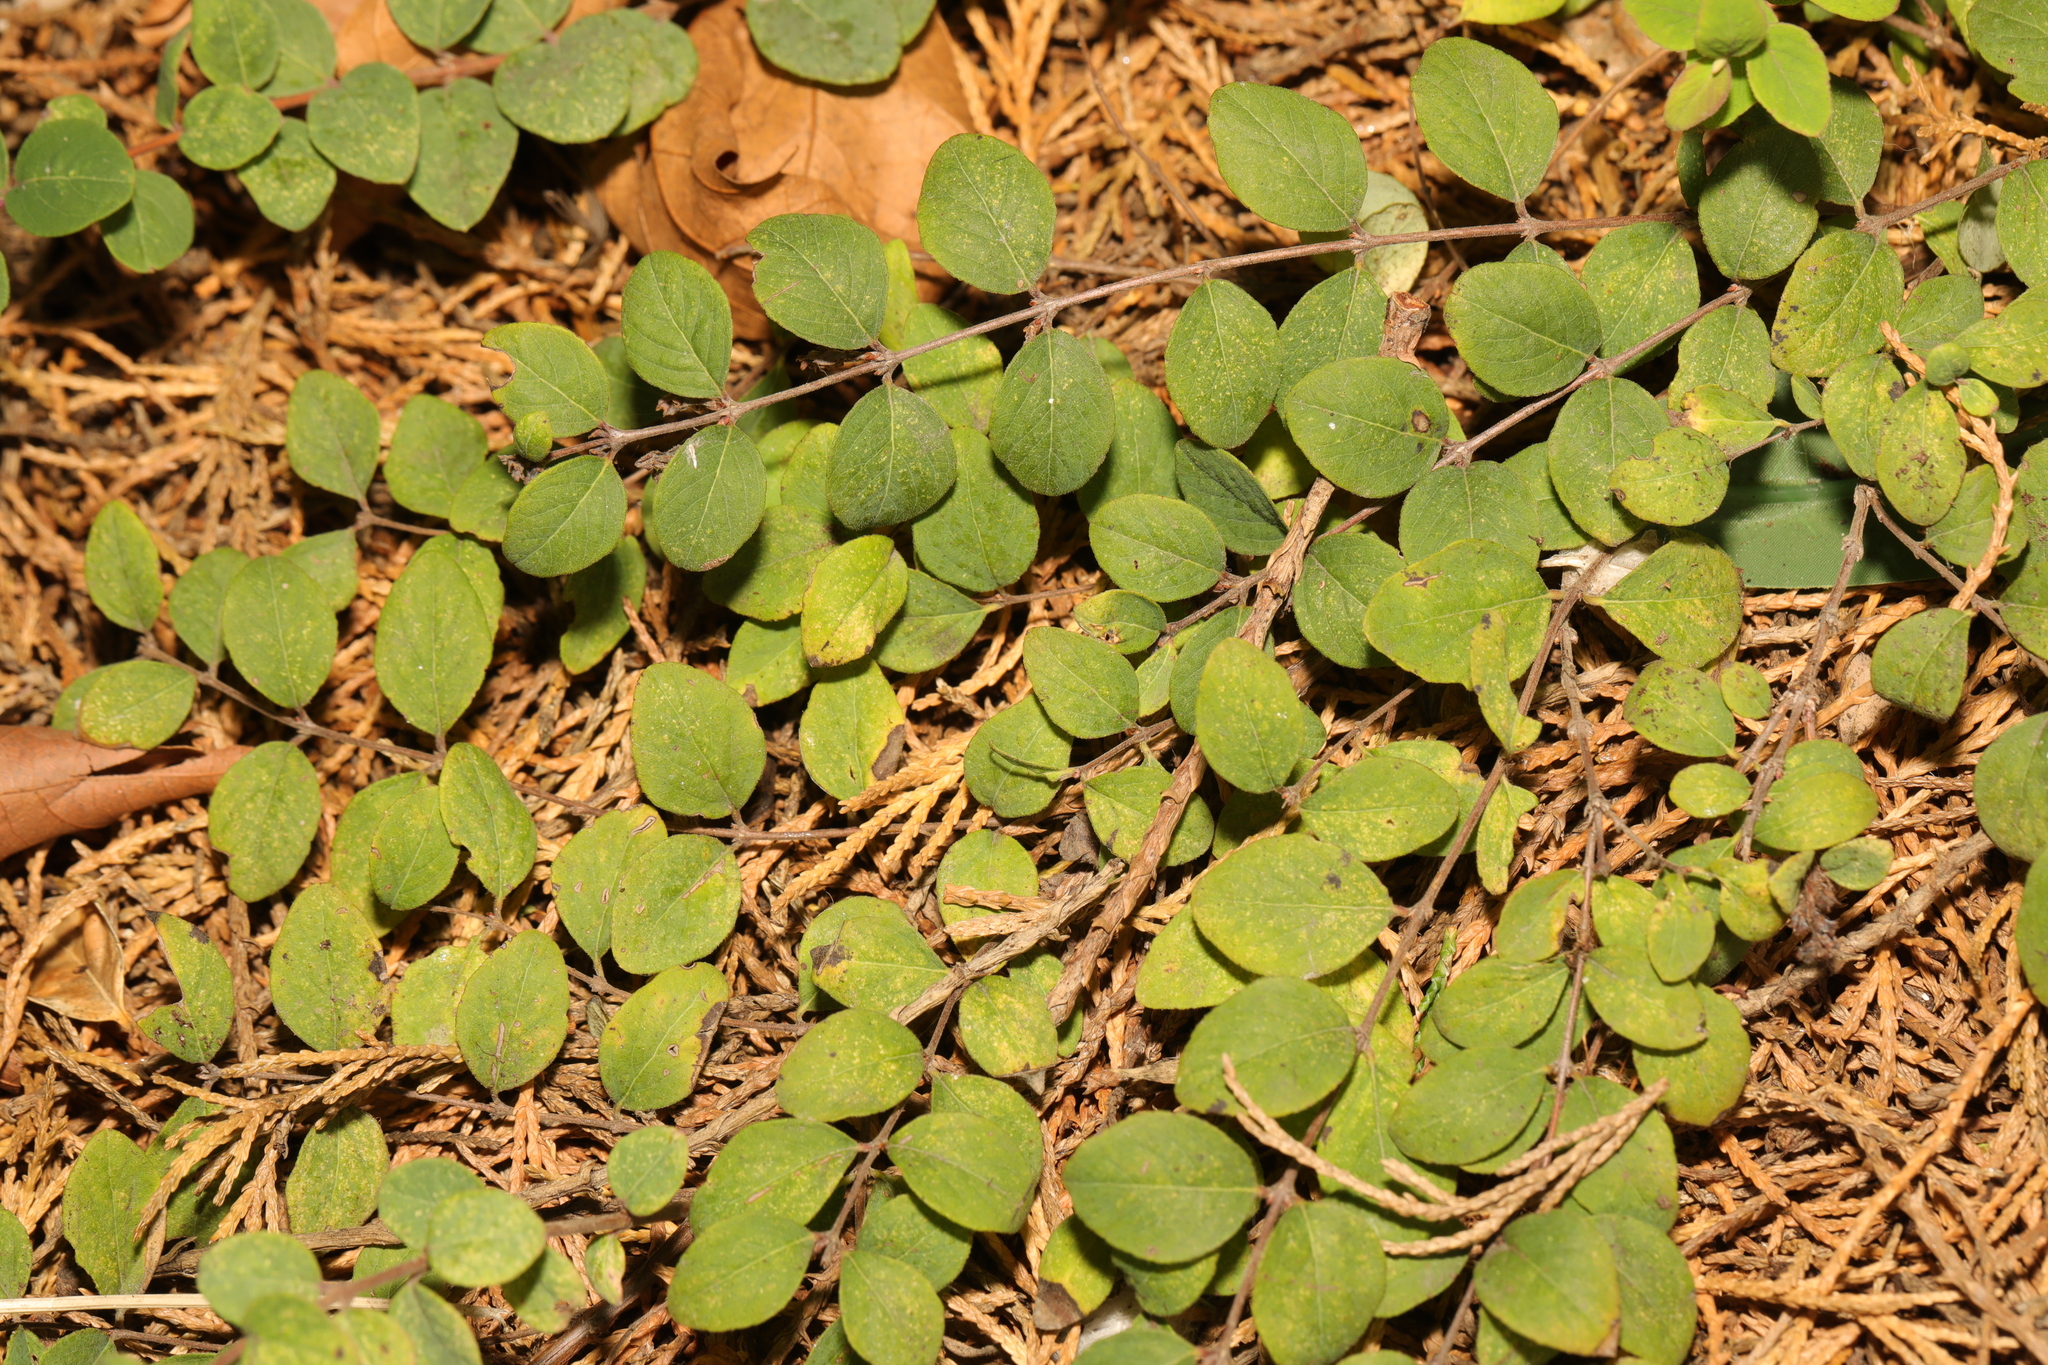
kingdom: Plantae
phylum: Tracheophyta
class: Magnoliopsida
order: Asterales
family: Campanulaceae
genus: Lobelia
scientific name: Lobelia pedunculata
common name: Matted pratia
